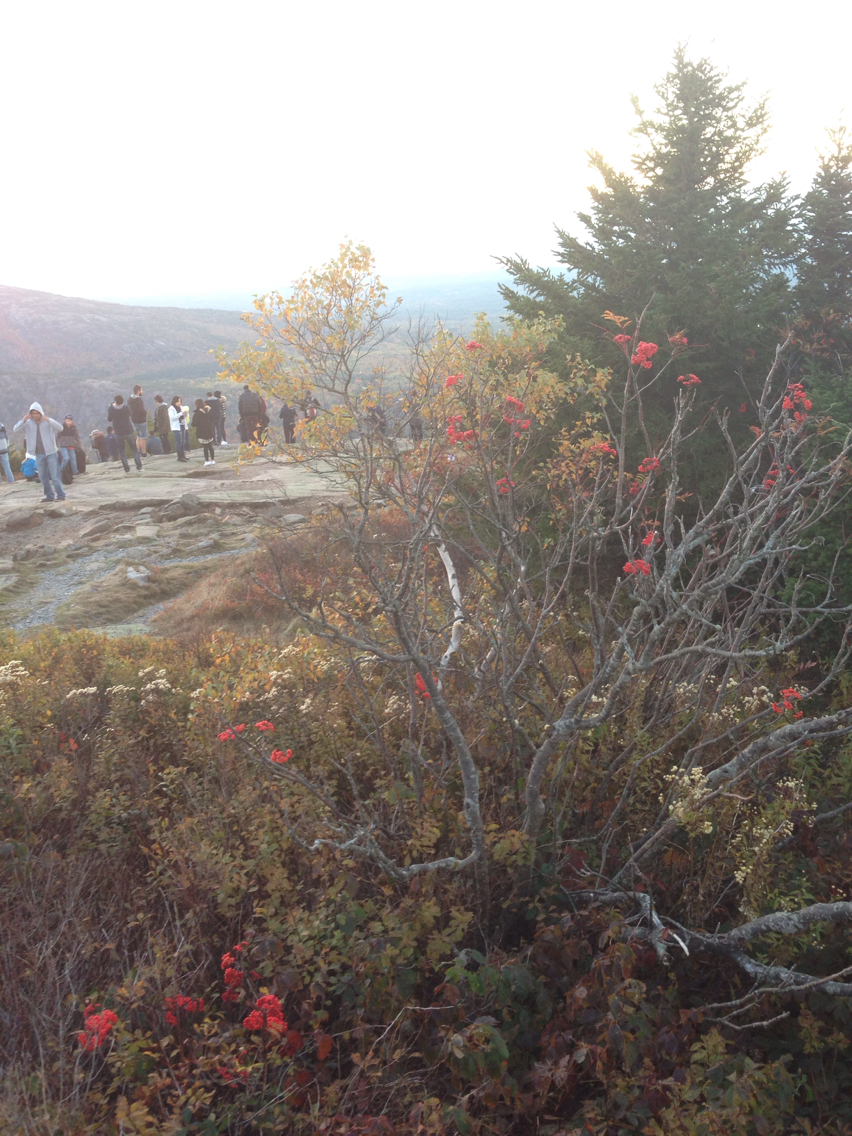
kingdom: Plantae
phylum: Tracheophyta
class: Magnoliopsida
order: Rosales
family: Rosaceae
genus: Sorbus
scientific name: Sorbus americana
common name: American mountain-ash
